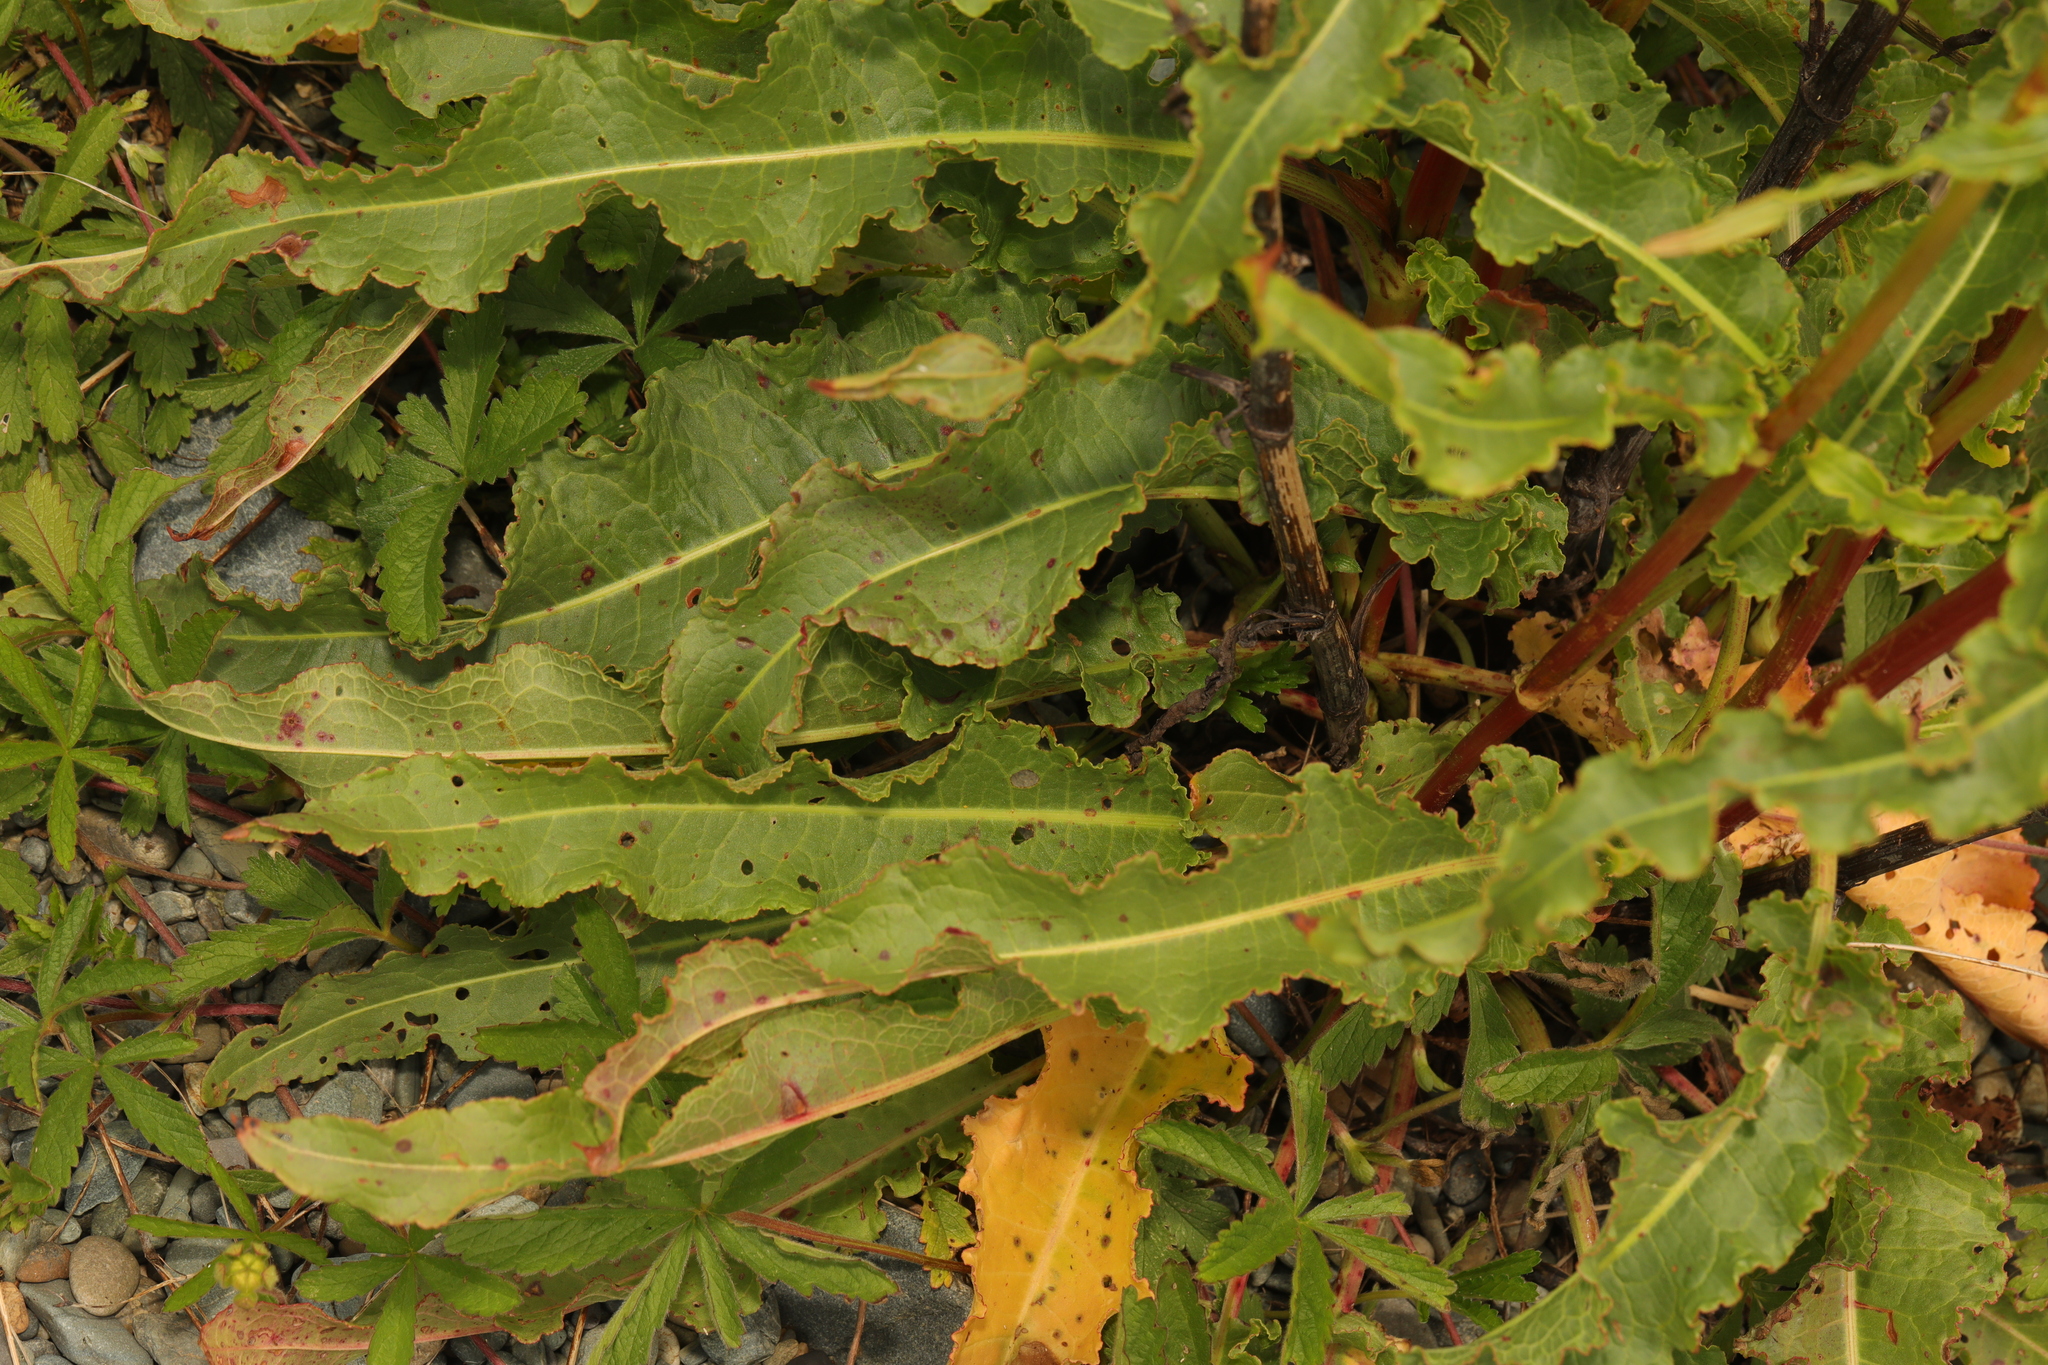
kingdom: Plantae
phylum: Tracheophyta
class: Magnoliopsida
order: Caryophyllales
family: Polygonaceae
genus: Rumex
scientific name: Rumex crispus
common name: Curled dock
